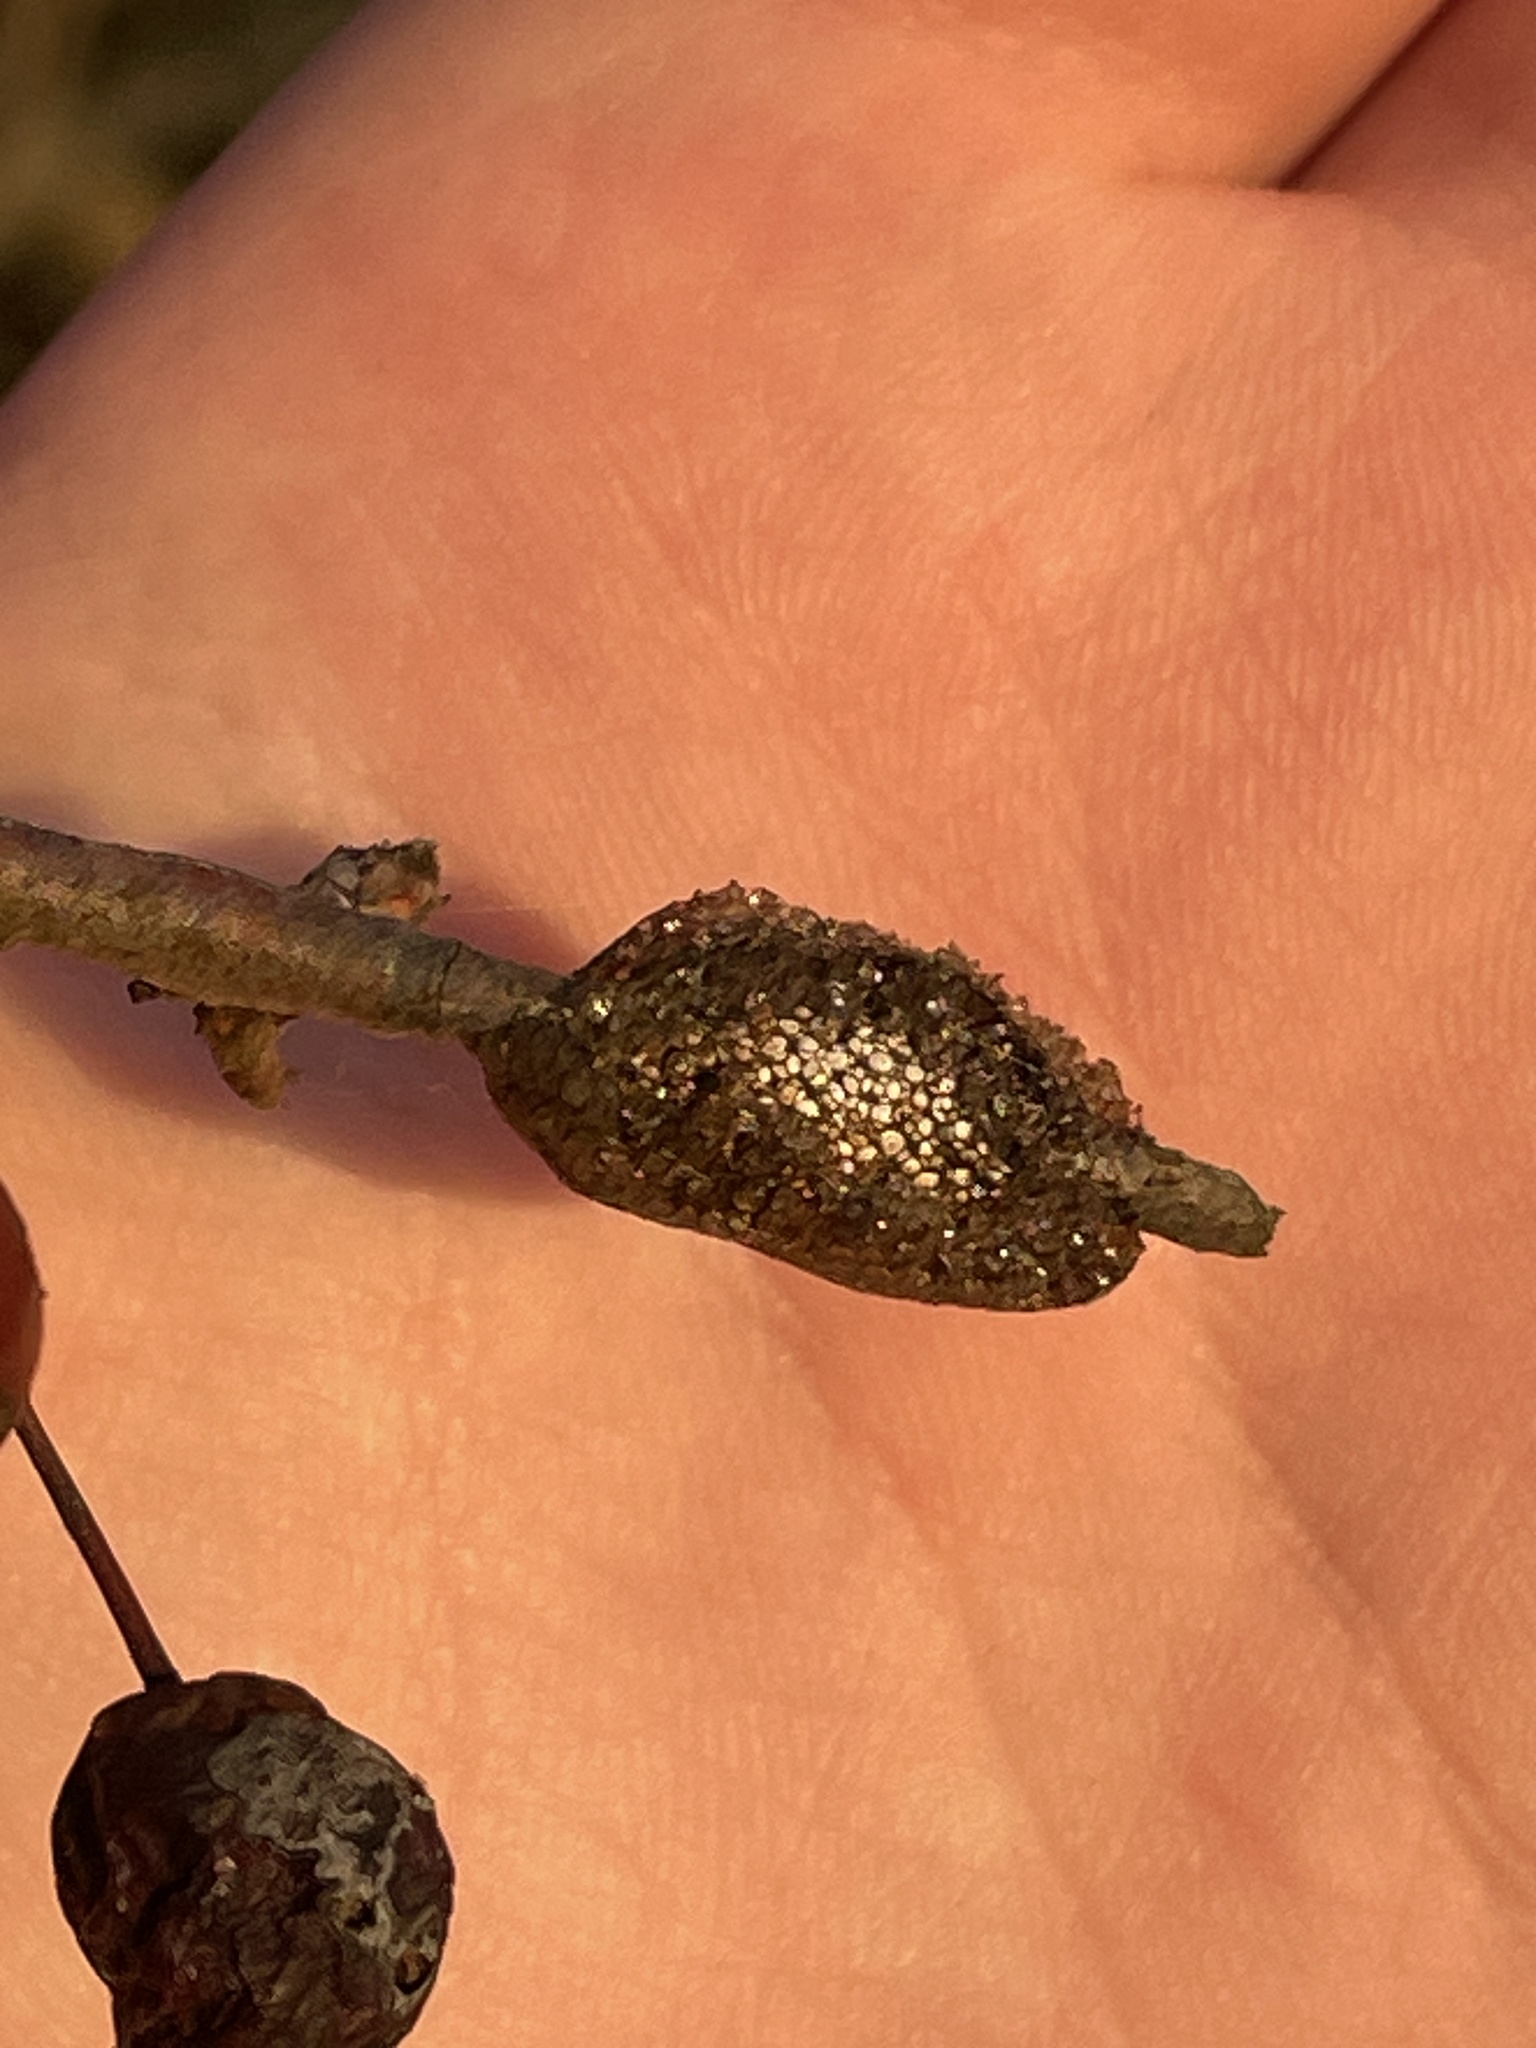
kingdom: Animalia
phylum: Arthropoda
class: Insecta
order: Lepidoptera
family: Lasiocampidae
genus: Malacosoma
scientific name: Malacosoma americana
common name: Eastern tent caterpillar moth
